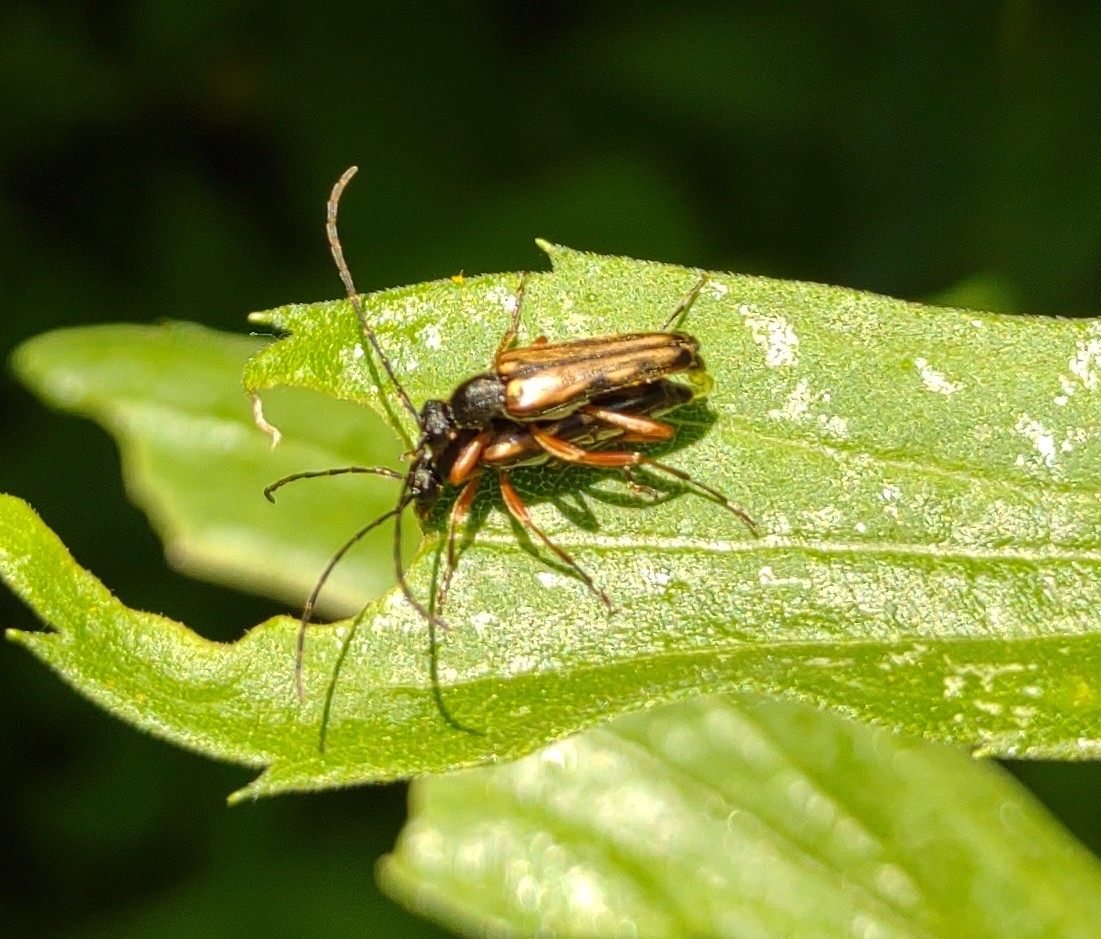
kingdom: Animalia
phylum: Arthropoda
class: Insecta
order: Coleoptera
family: Cerambycidae
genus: Analeptura
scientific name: Analeptura lineola
